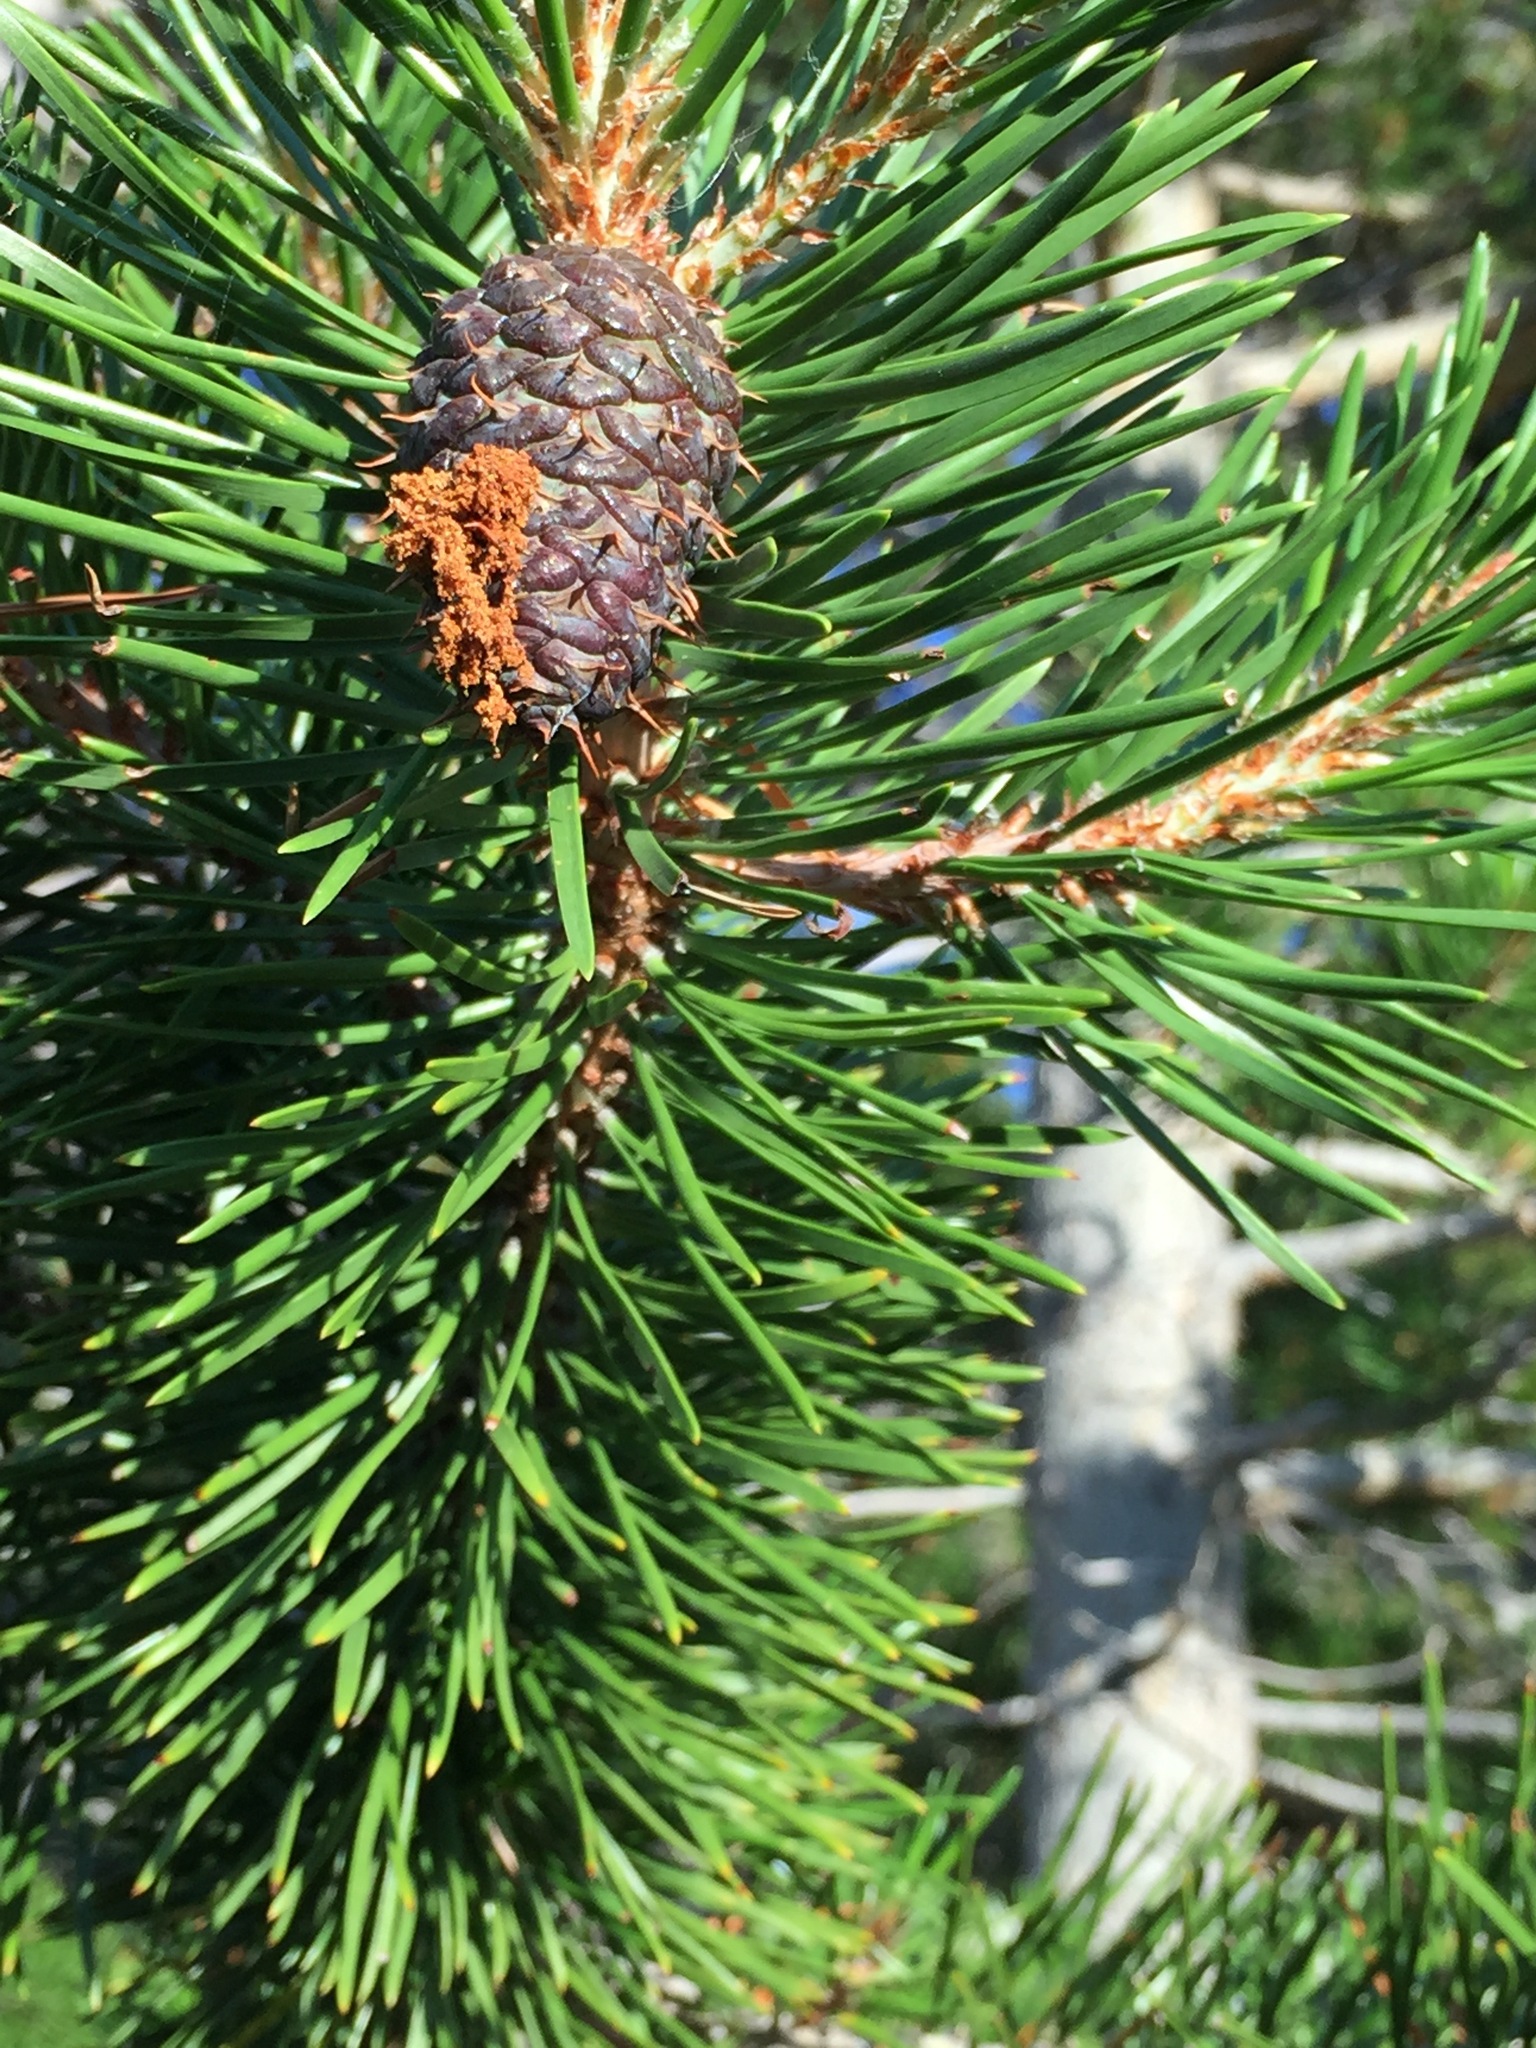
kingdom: Plantae
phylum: Tracheophyta
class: Pinopsida
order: Pinales
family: Pinaceae
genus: Pinus
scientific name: Pinus contorta
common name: Lodgepole pine
